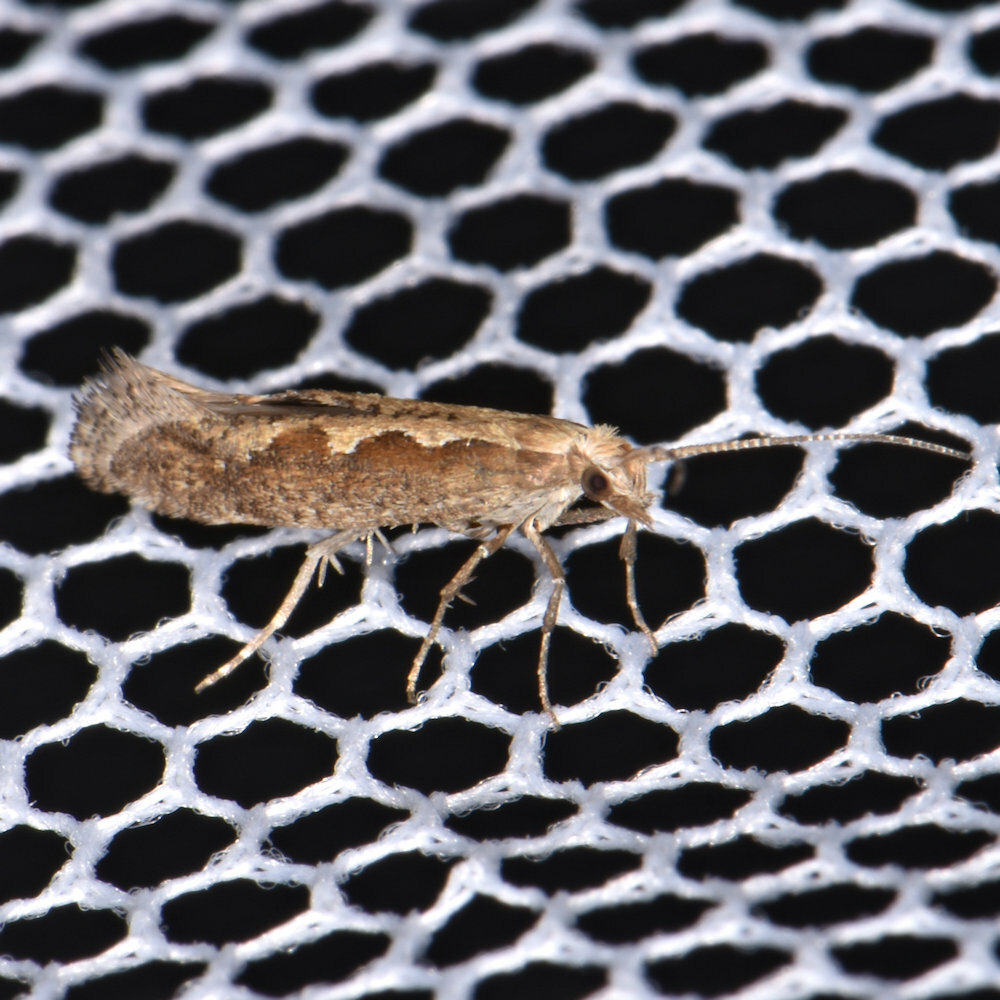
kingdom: Animalia
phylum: Arthropoda
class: Insecta
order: Lepidoptera
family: Plutellidae
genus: Plutella
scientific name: Plutella xylostella
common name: Diamond-back moth
